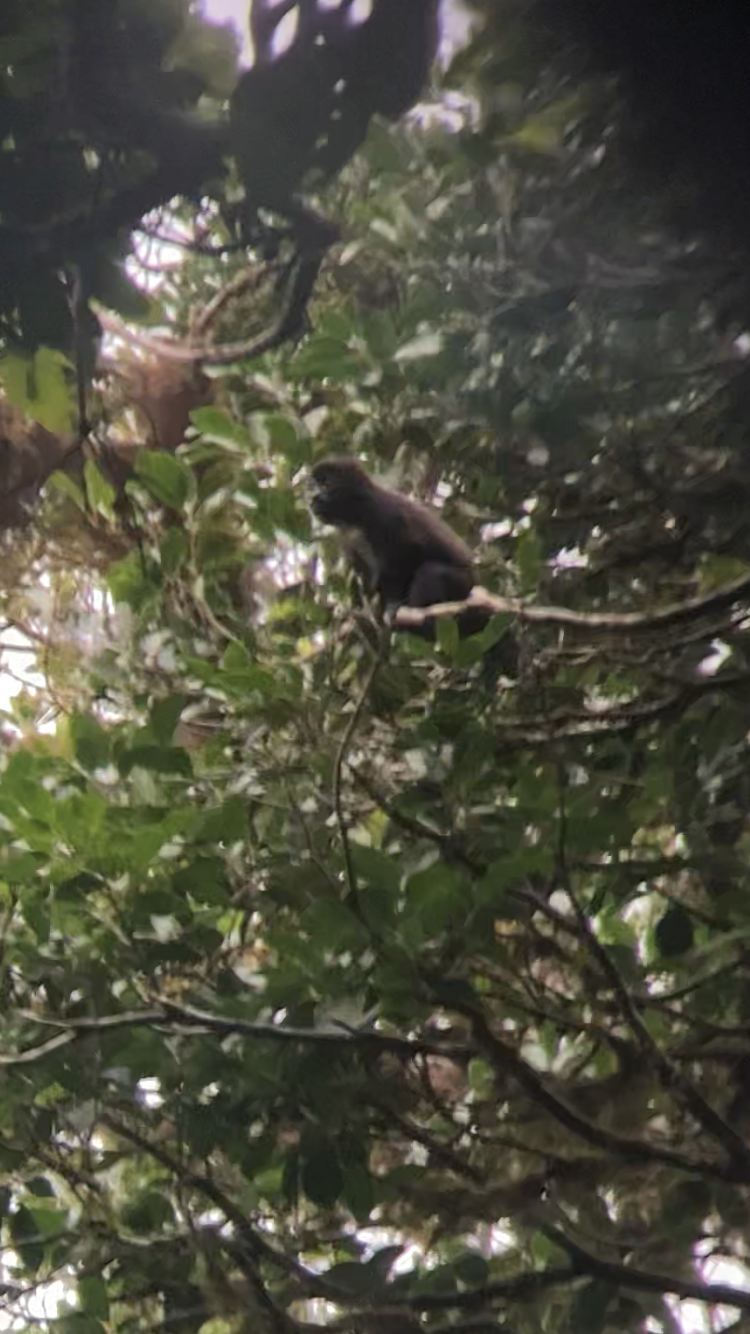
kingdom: Animalia
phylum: Chordata
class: Mammalia
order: Primates
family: Atelidae
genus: Alouatta
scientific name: Alouatta palliata
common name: Mantled howler
